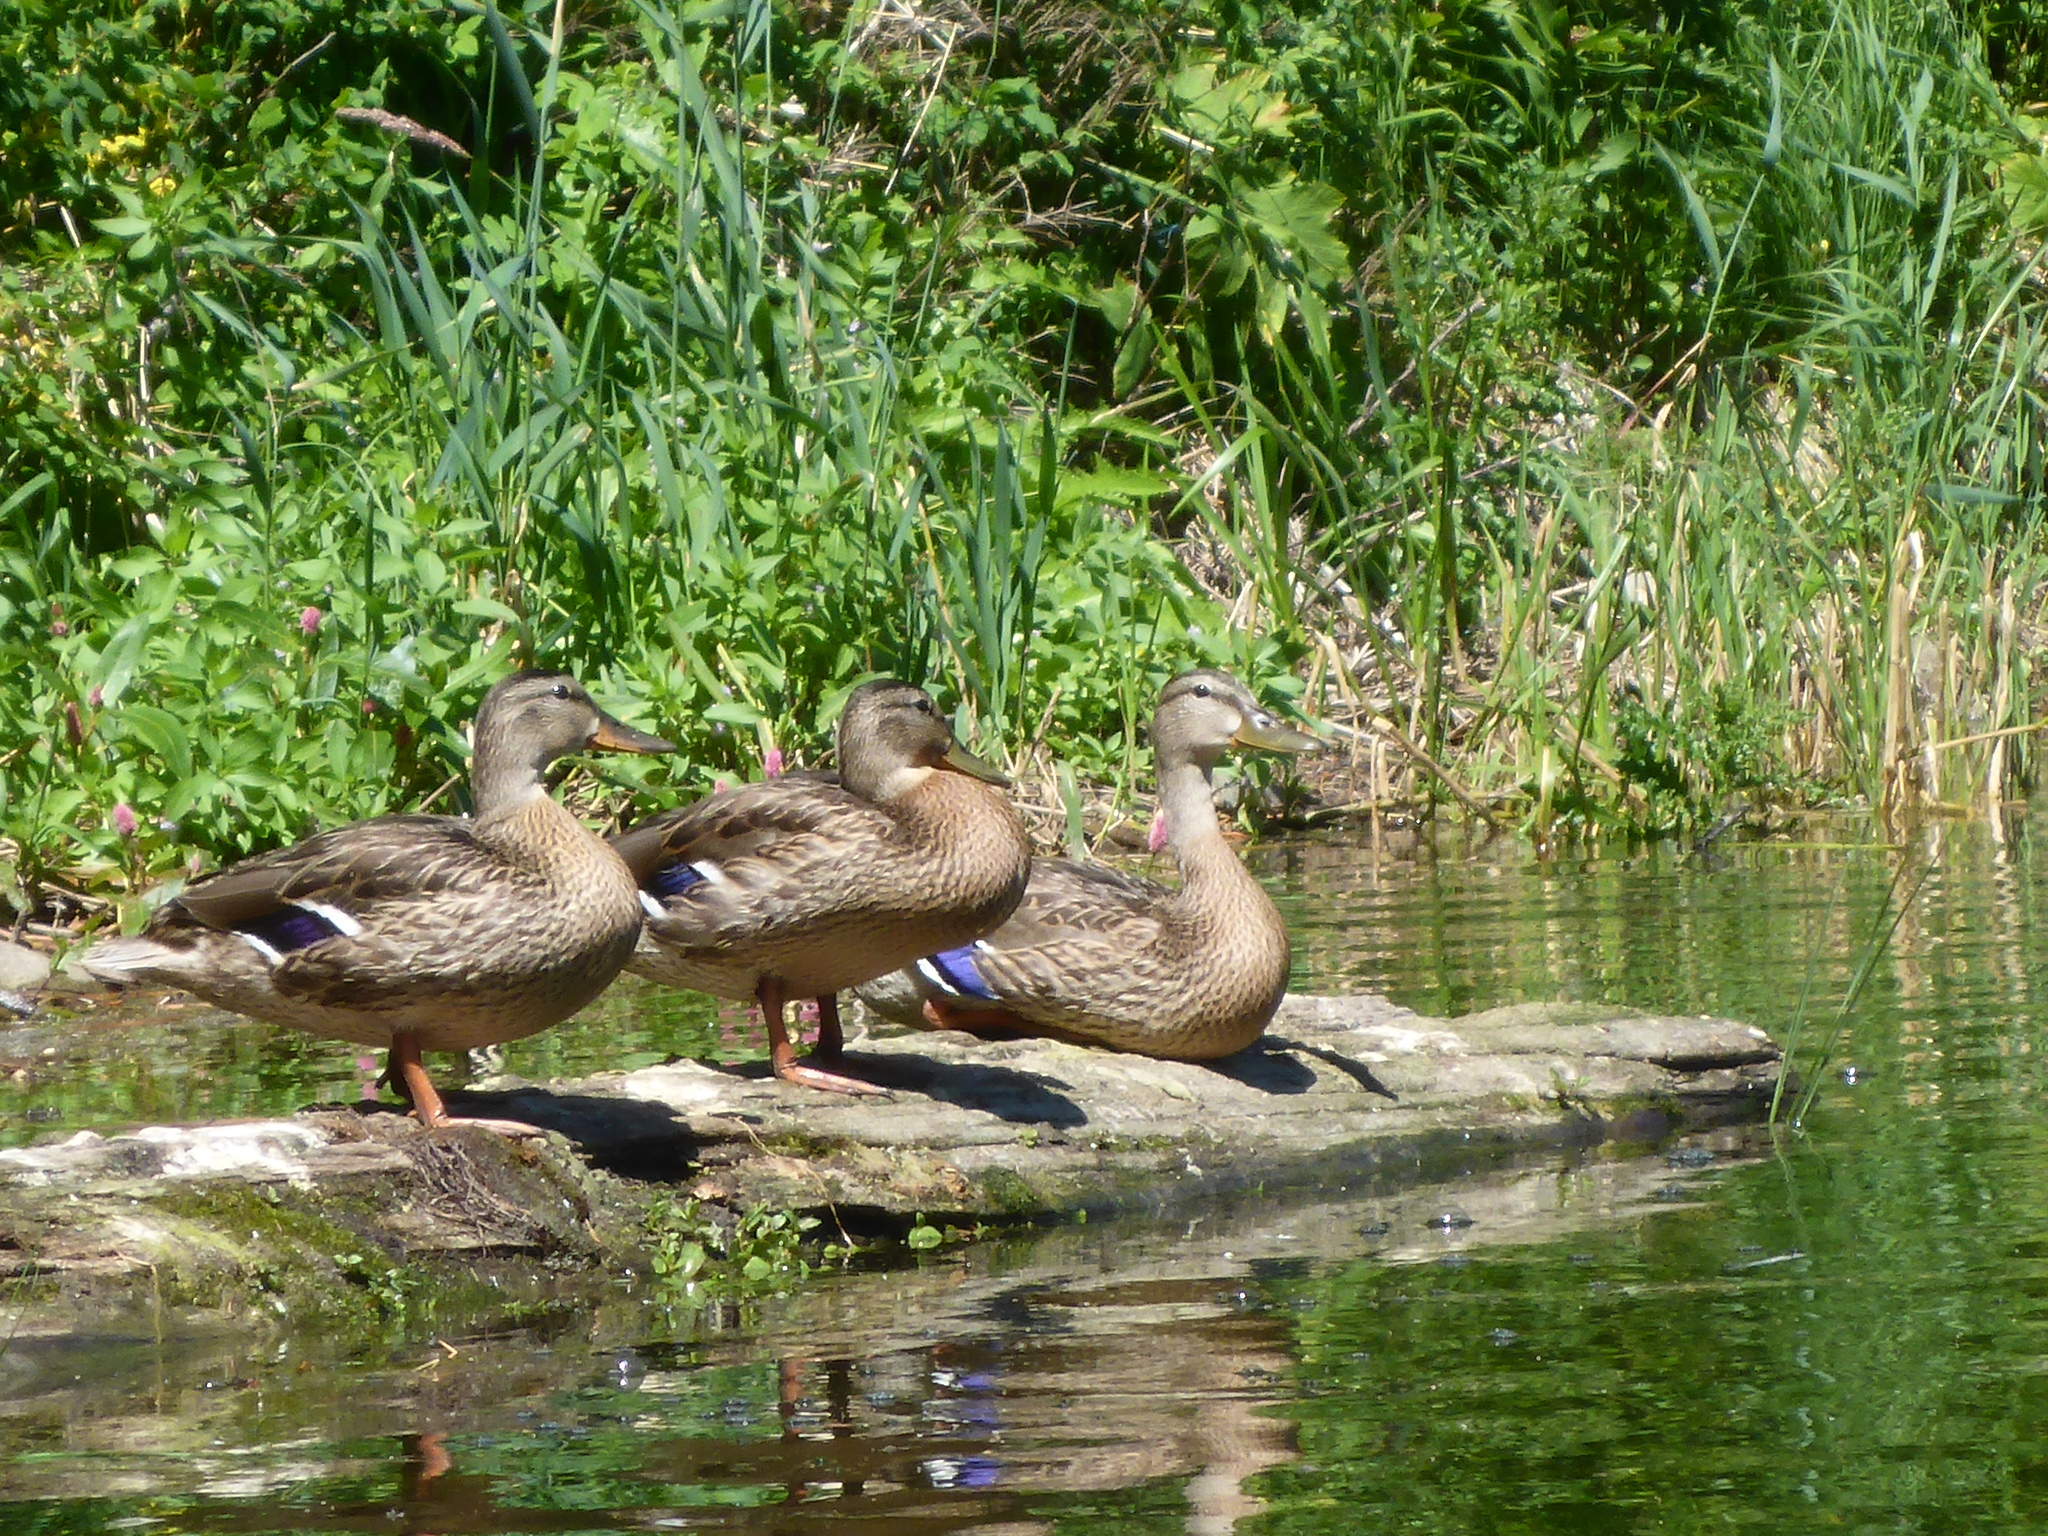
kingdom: Animalia
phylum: Chordata
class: Aves
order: Anseriformes
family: Anatidae
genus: Anas
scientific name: Anas platyrhynchos
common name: Mallard
